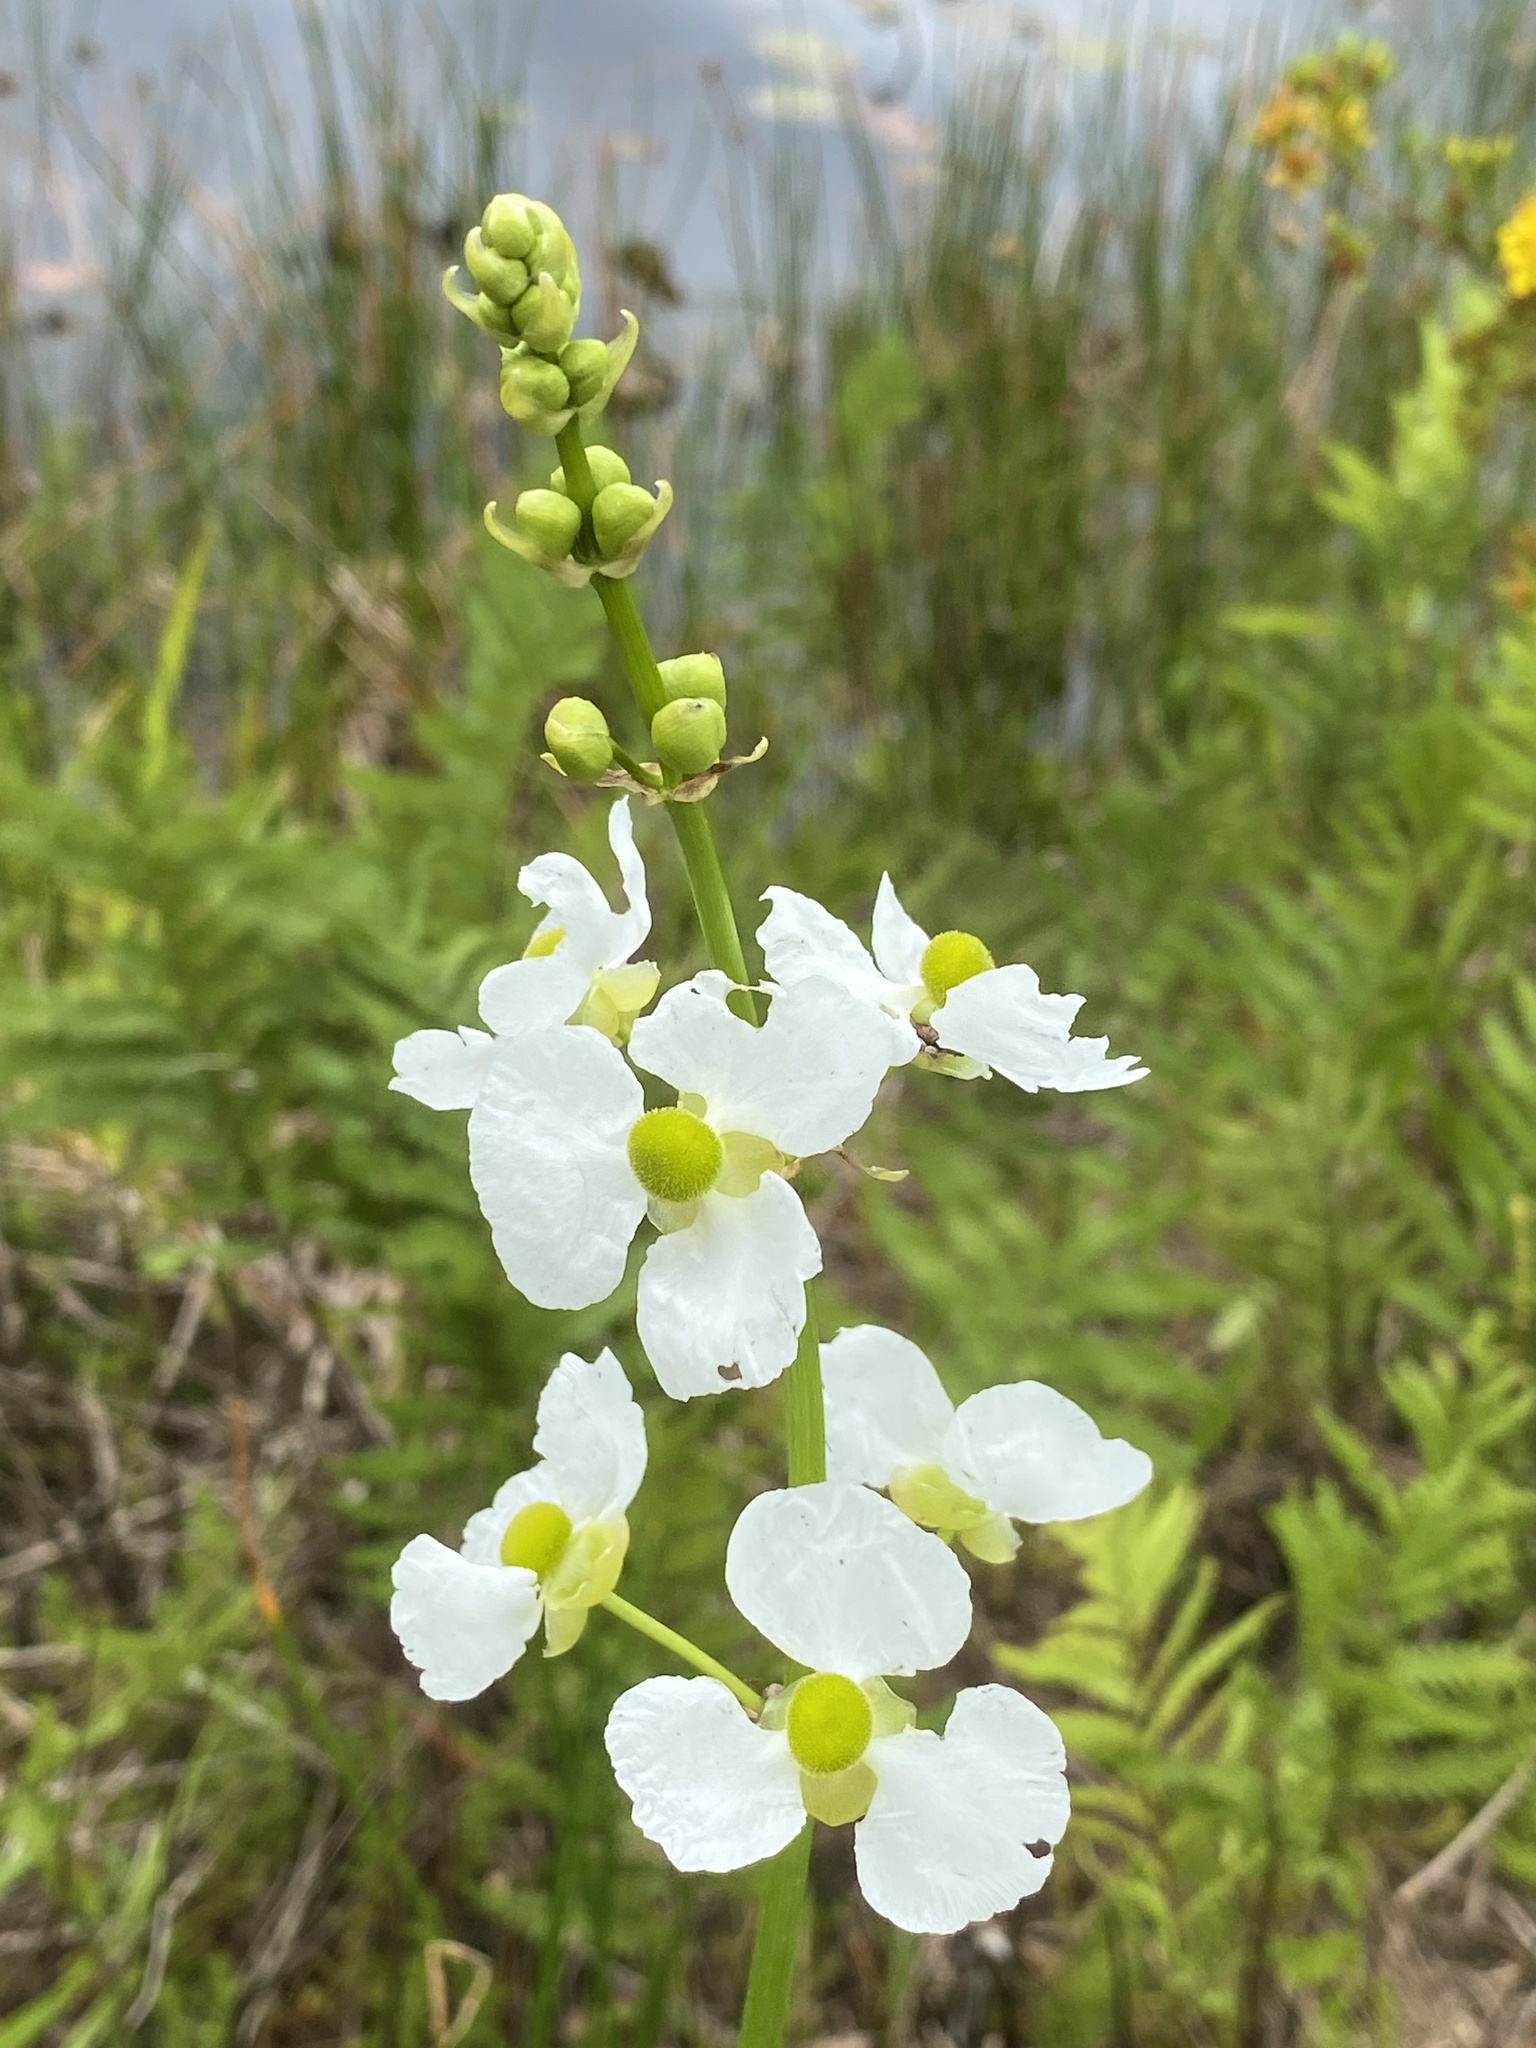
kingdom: Plantae
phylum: Tracheophyta
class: Liliopsida
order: Alismatales
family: Alismataceae
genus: Sagittaria
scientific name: Sagittaria lancifolia
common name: Lance-leaf arrowhead
